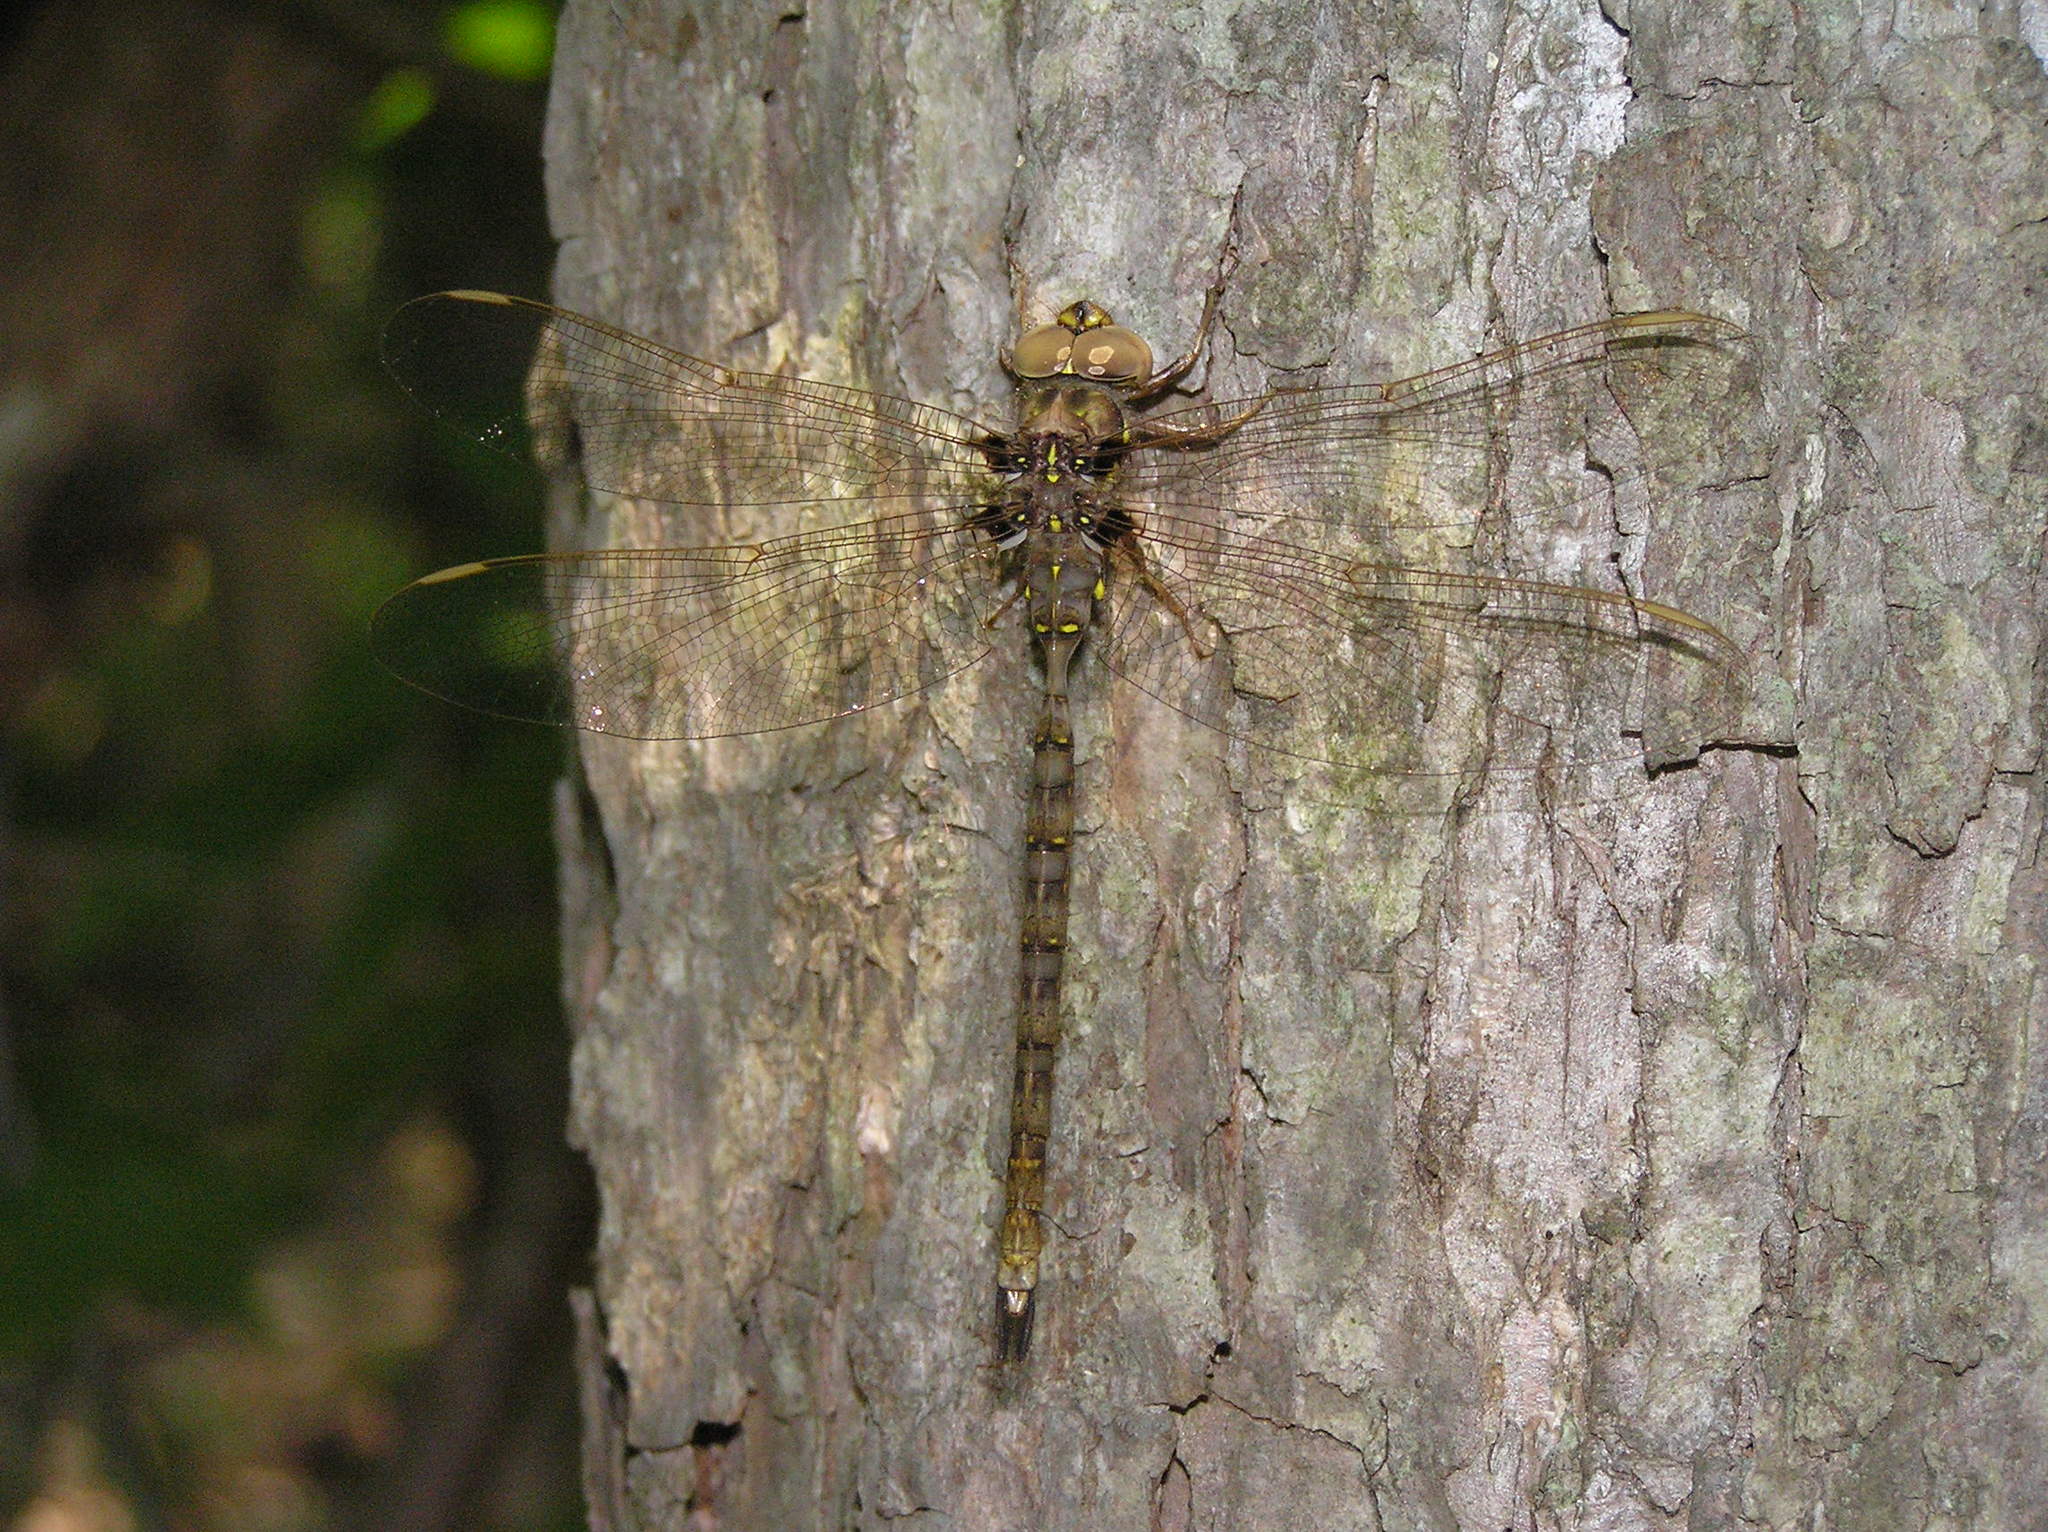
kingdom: Animalia
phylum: Arthropoda
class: Insecta
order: Odonata
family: Aeshnidae
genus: Boyeria
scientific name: Boyeria vinosa
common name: Fawn darner
